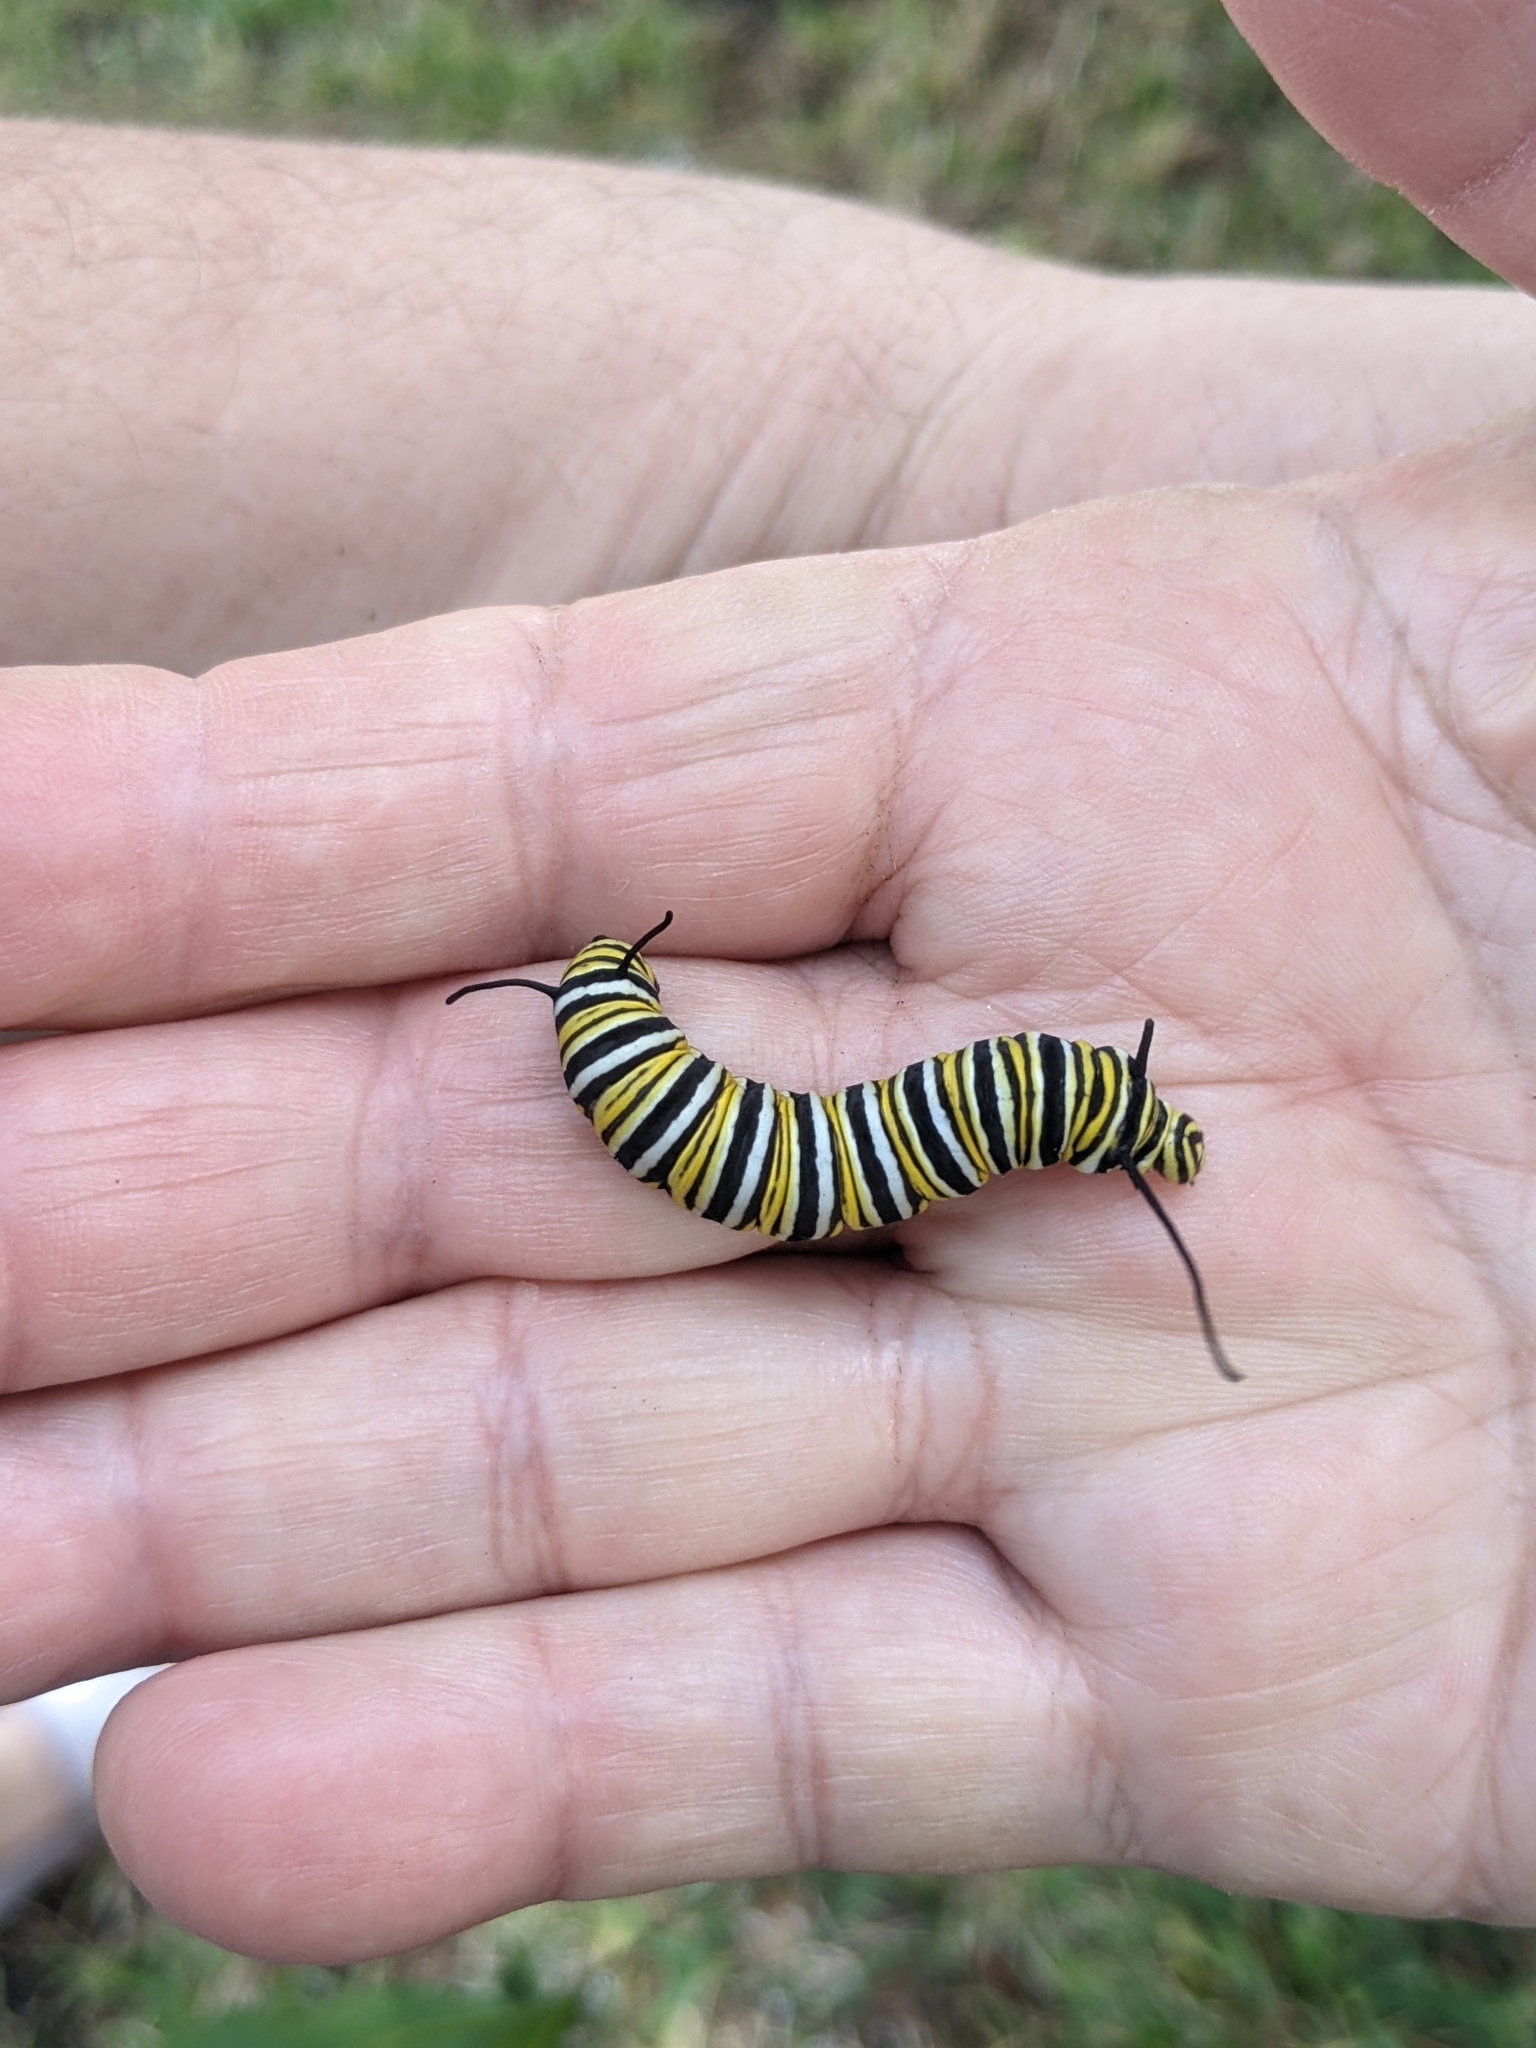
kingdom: Animalia
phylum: Arthropoda
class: Insecta
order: Lepidoptera
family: Nymphalidae
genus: Danaus
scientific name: Danaus plexippus
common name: Monarch
